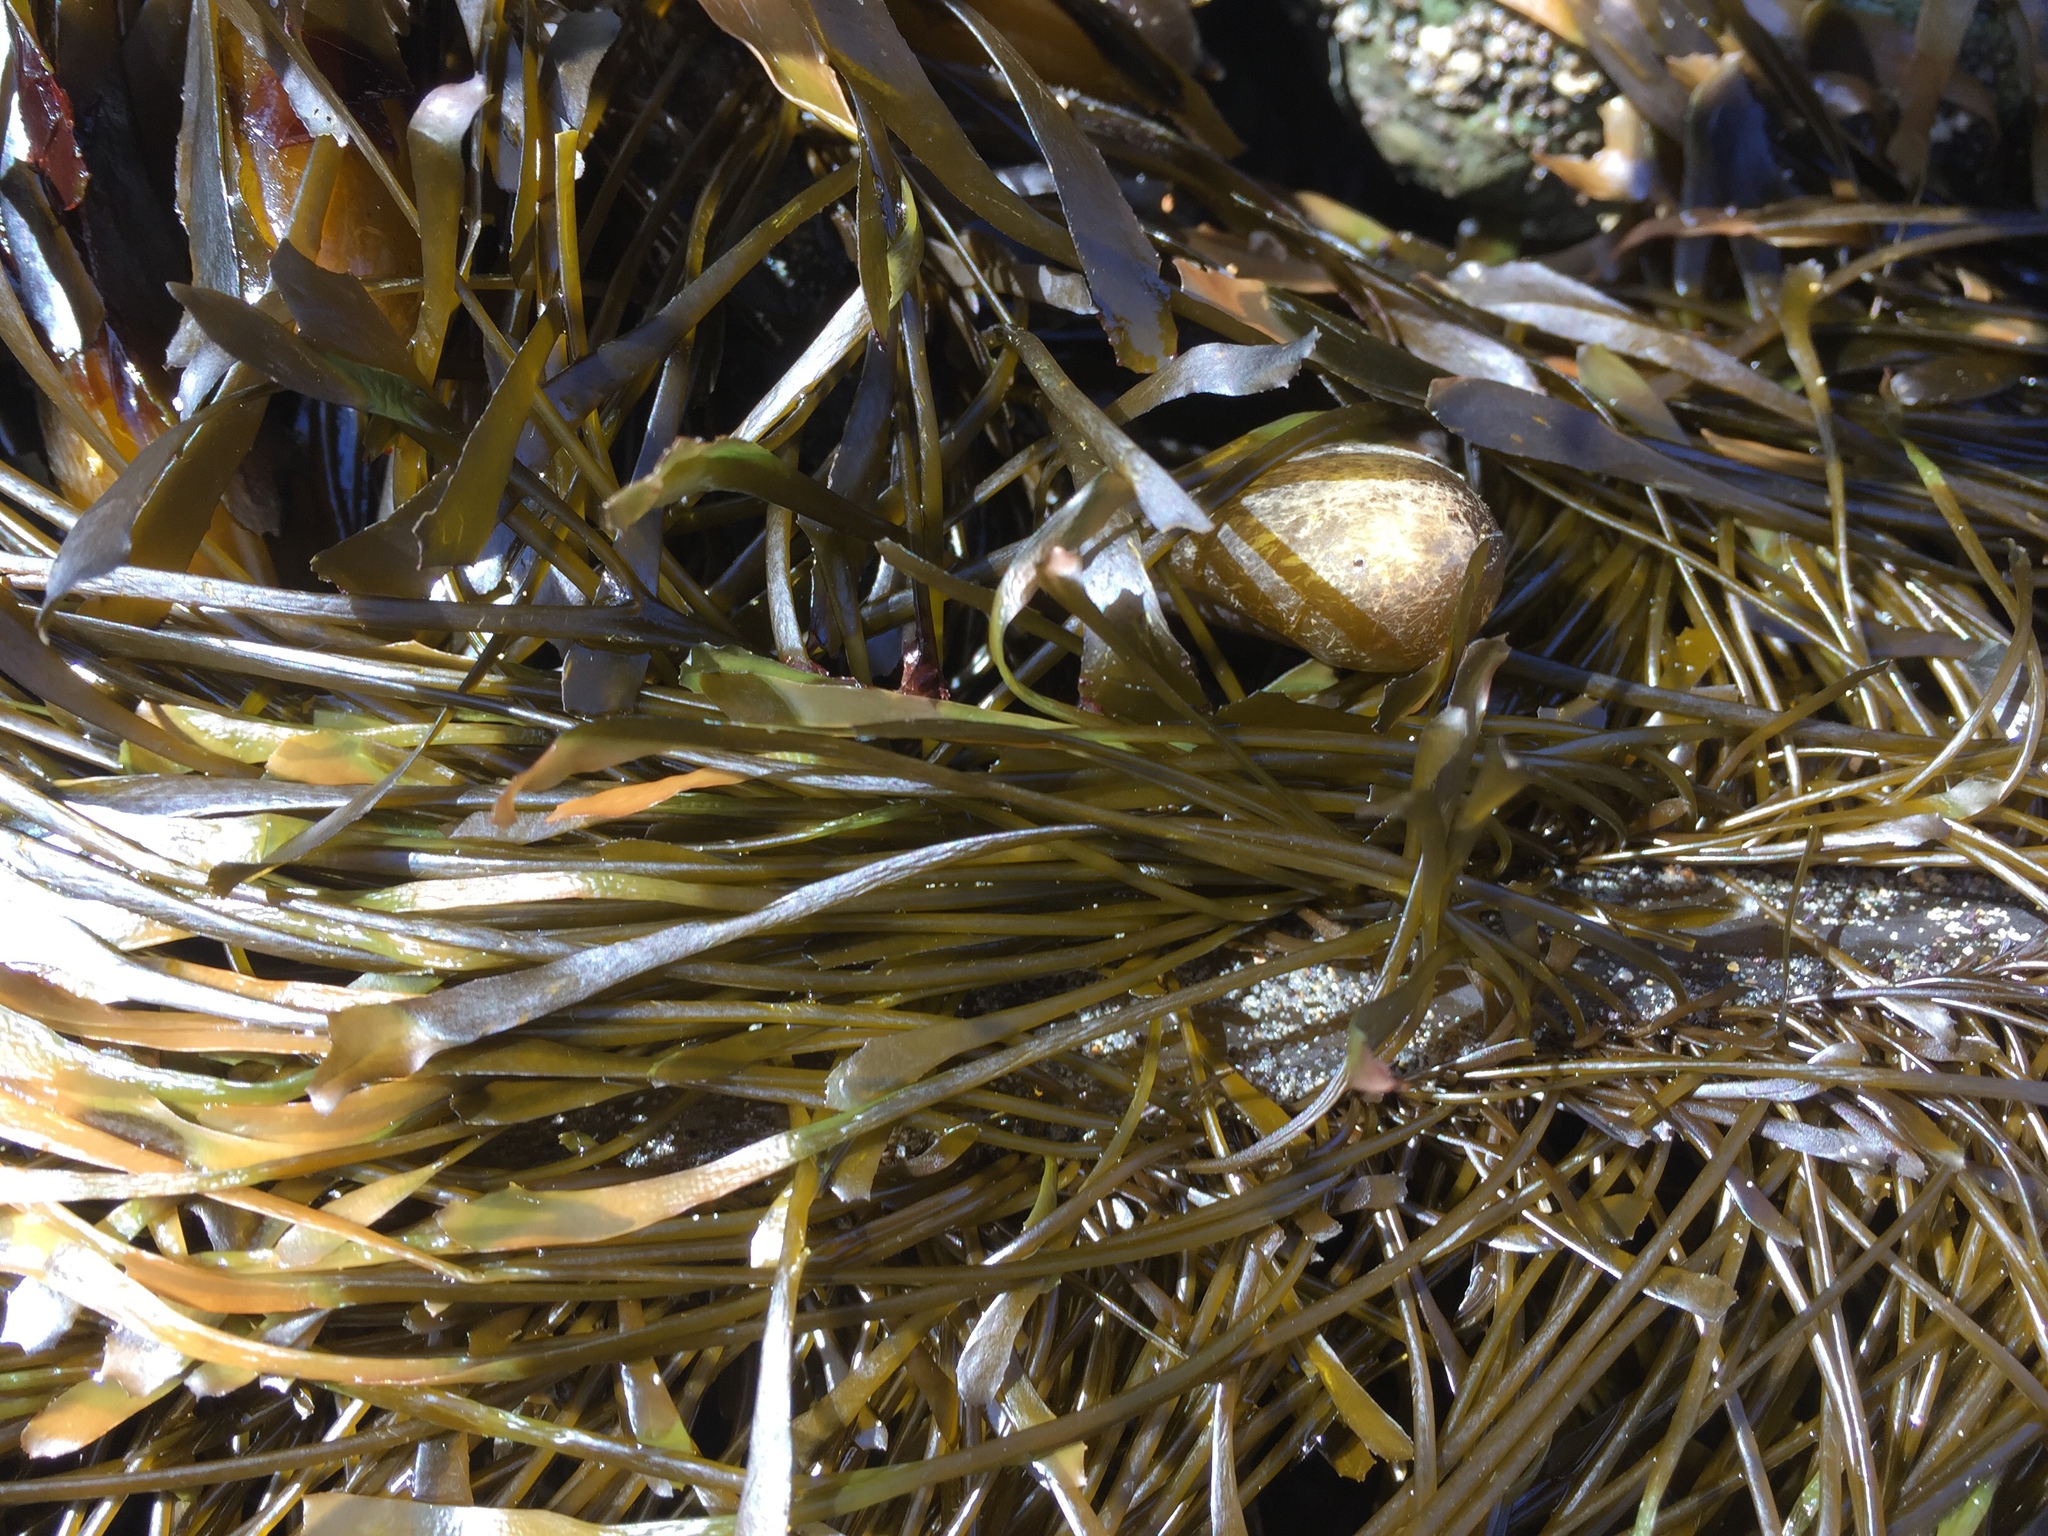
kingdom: Chromista
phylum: Ochrophyta
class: Phaeophyceae
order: Laminariales
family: Lessoniaceae
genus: Egregia
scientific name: Egregia menziesii
